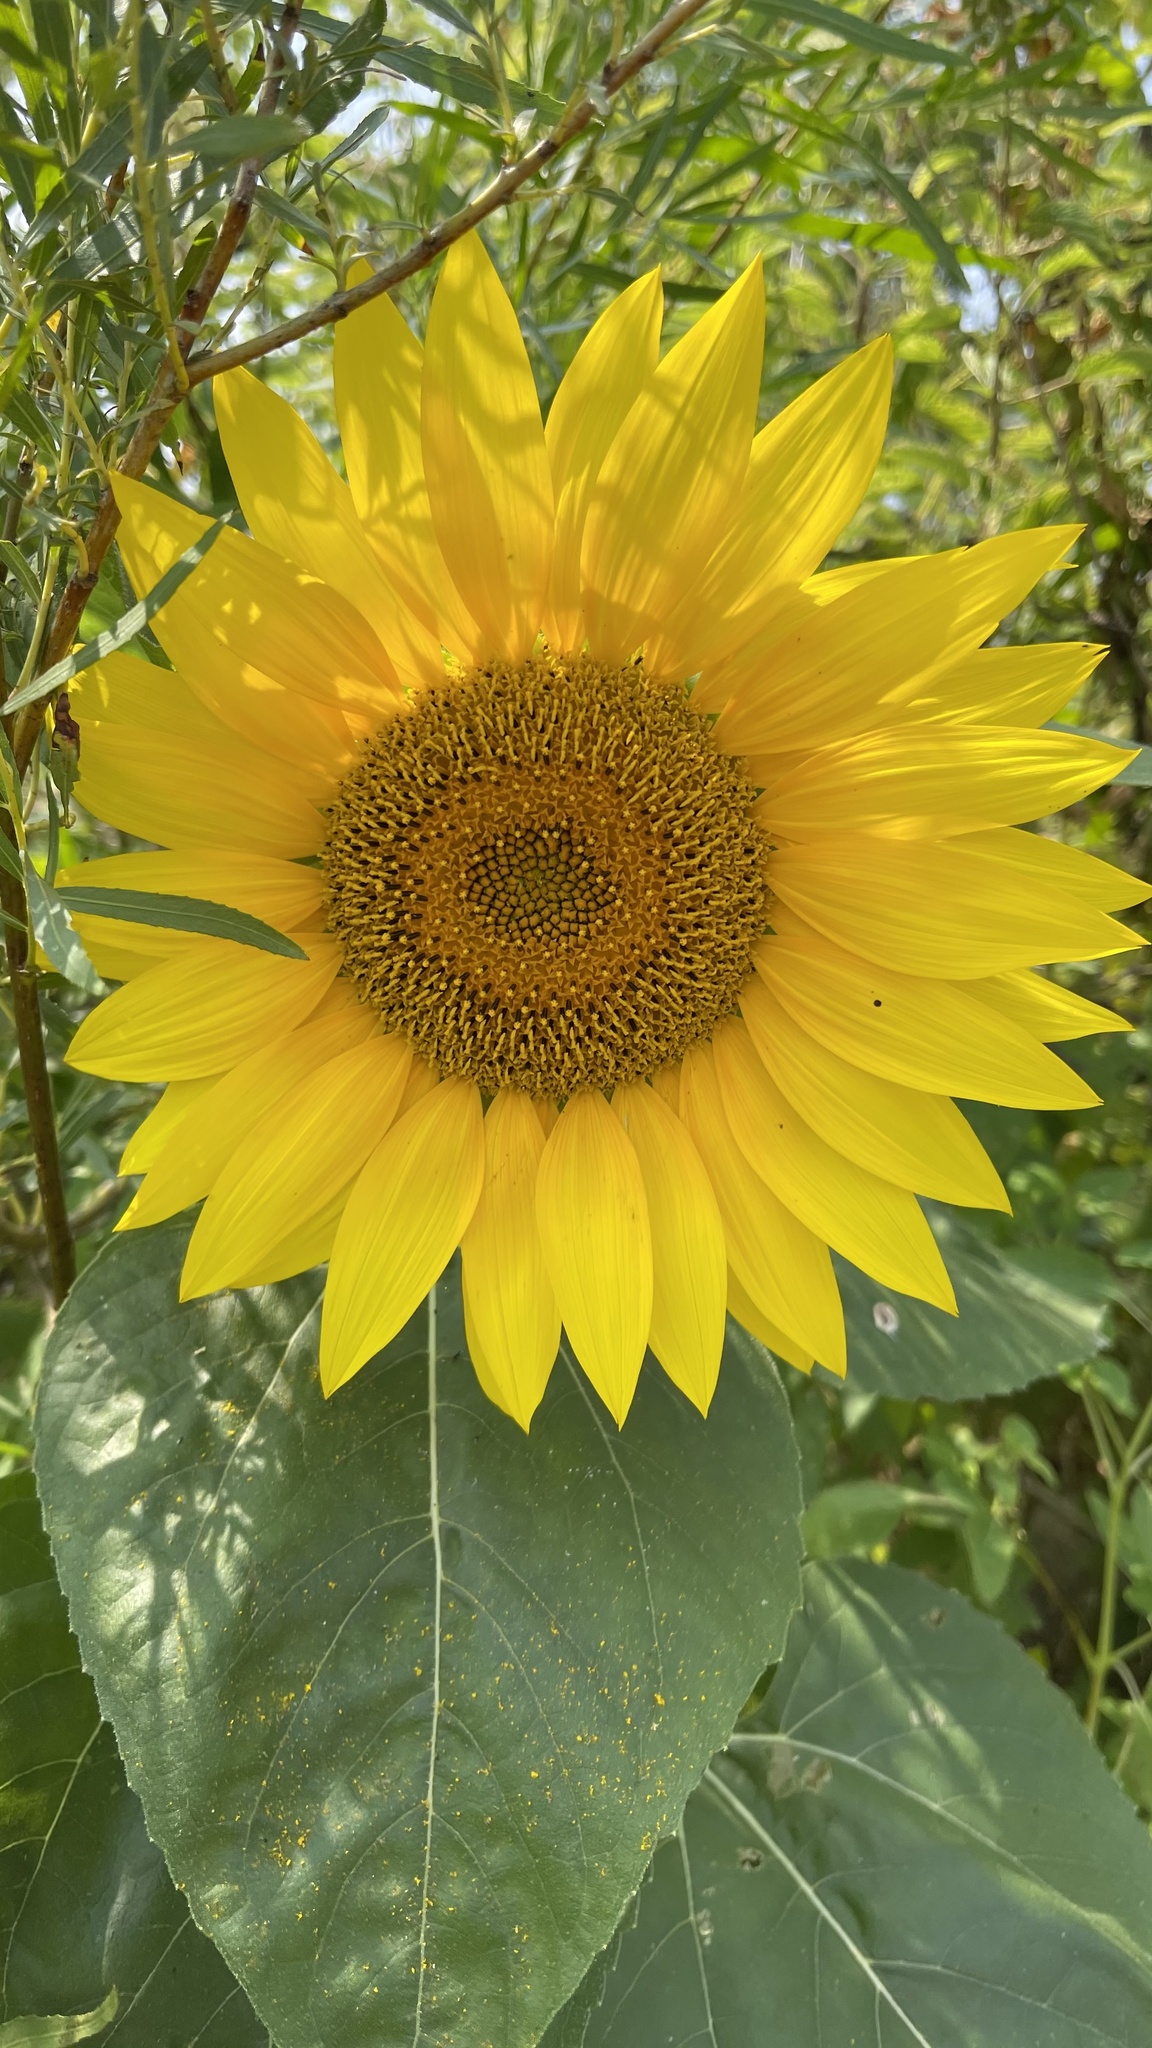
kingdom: Plantae
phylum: Tracheophyta
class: Magnoliopsida
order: Asterales
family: Asteraceae
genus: Helianthus
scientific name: Helianthus annuus
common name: Sunflower
